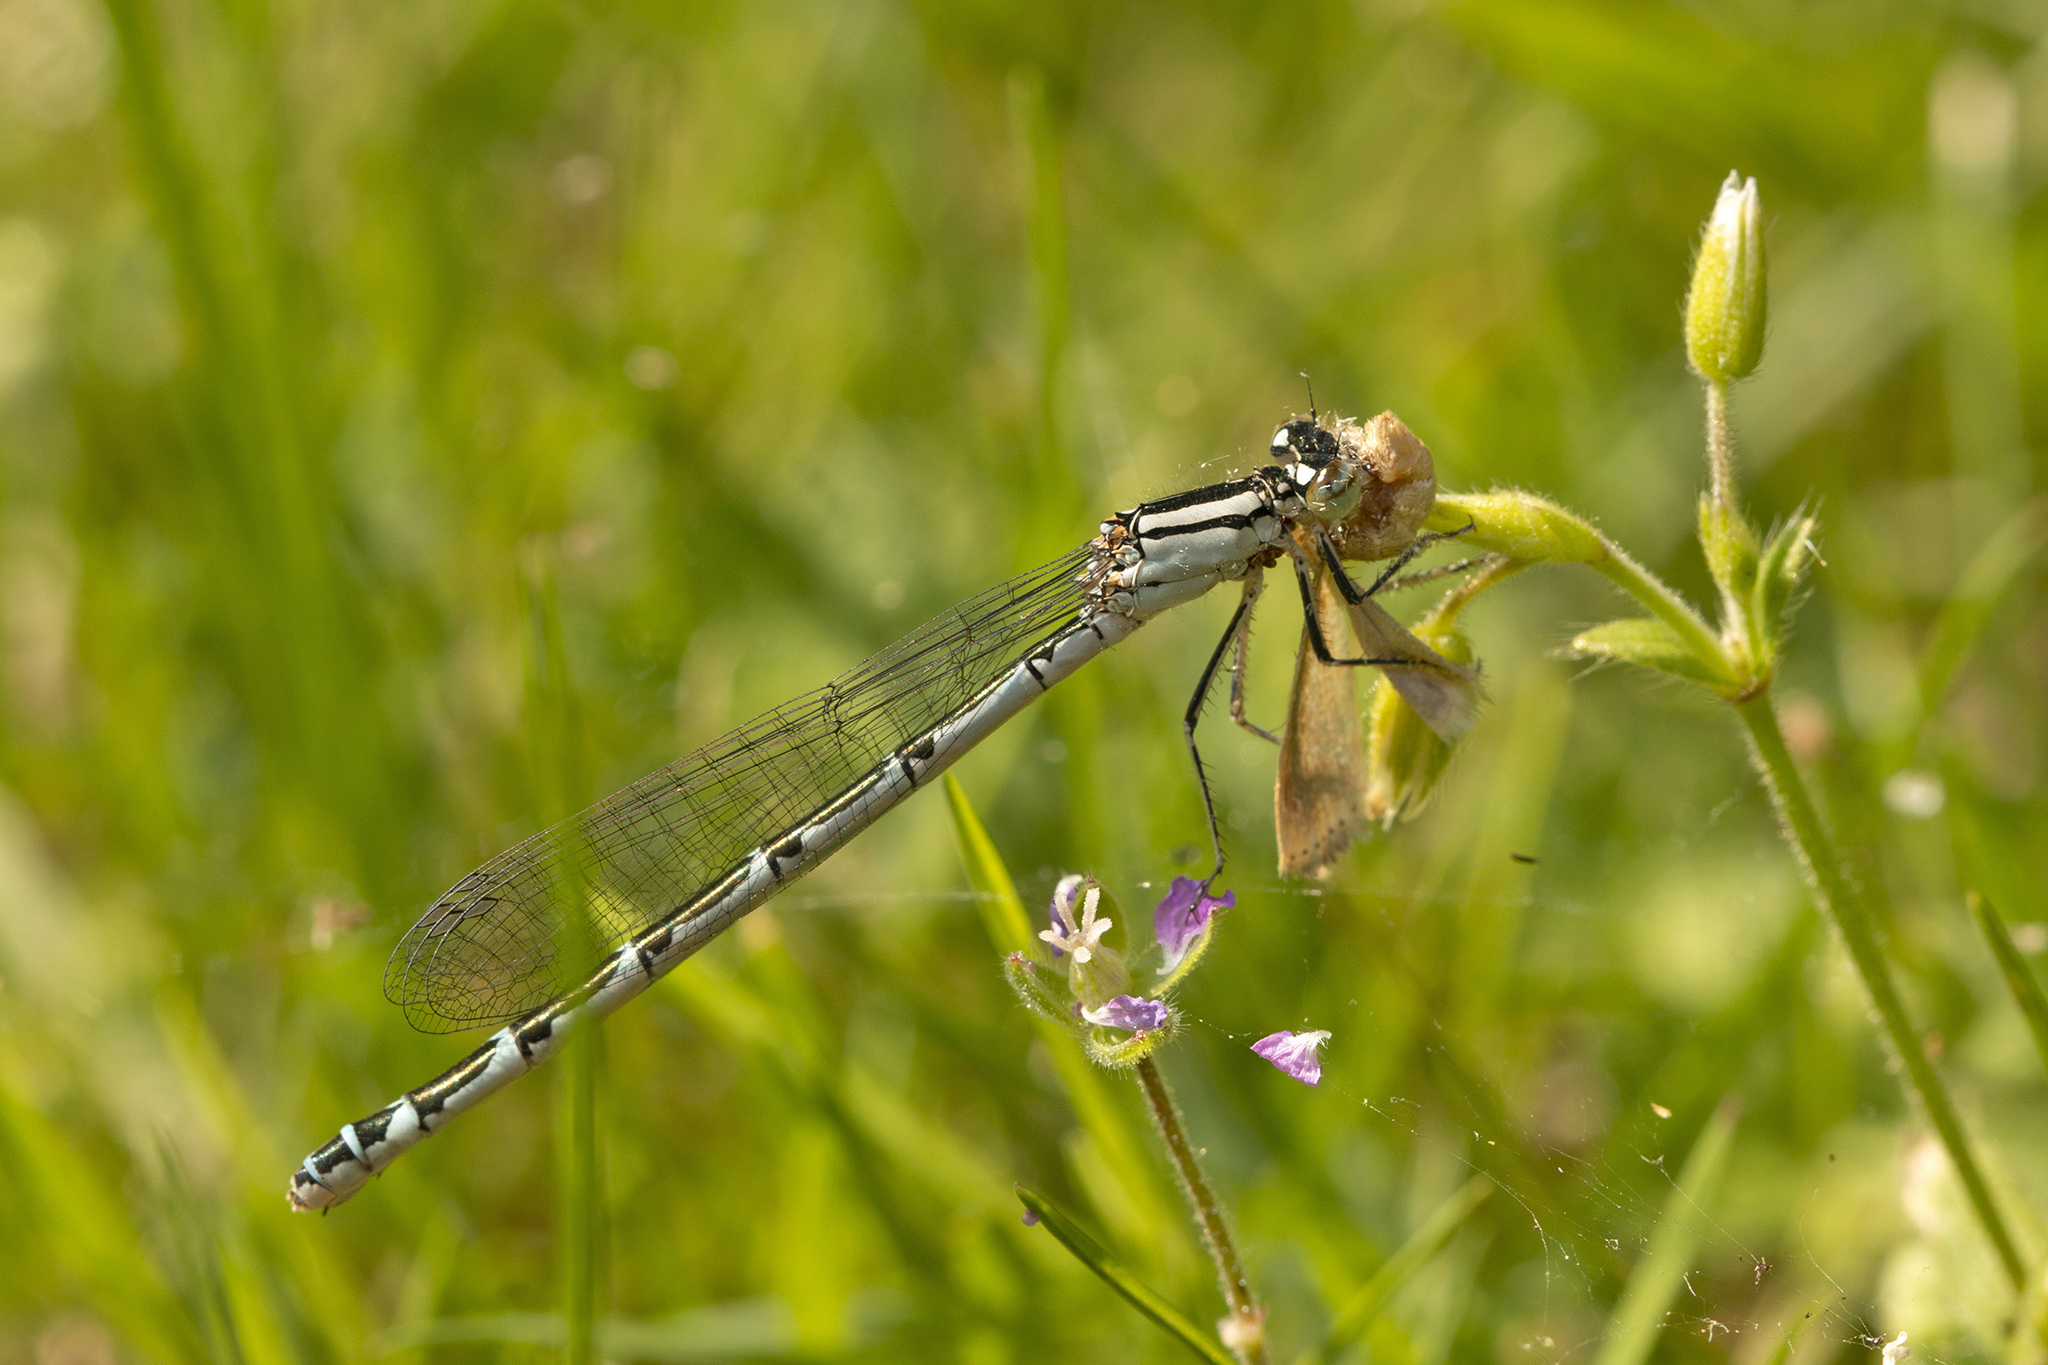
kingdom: Animalia
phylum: Arthropoda
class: Insecta
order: Odonata
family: Coenagrionidae
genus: Enallagma
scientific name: Enallagma cyathigerum
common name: Common blue damselfly
